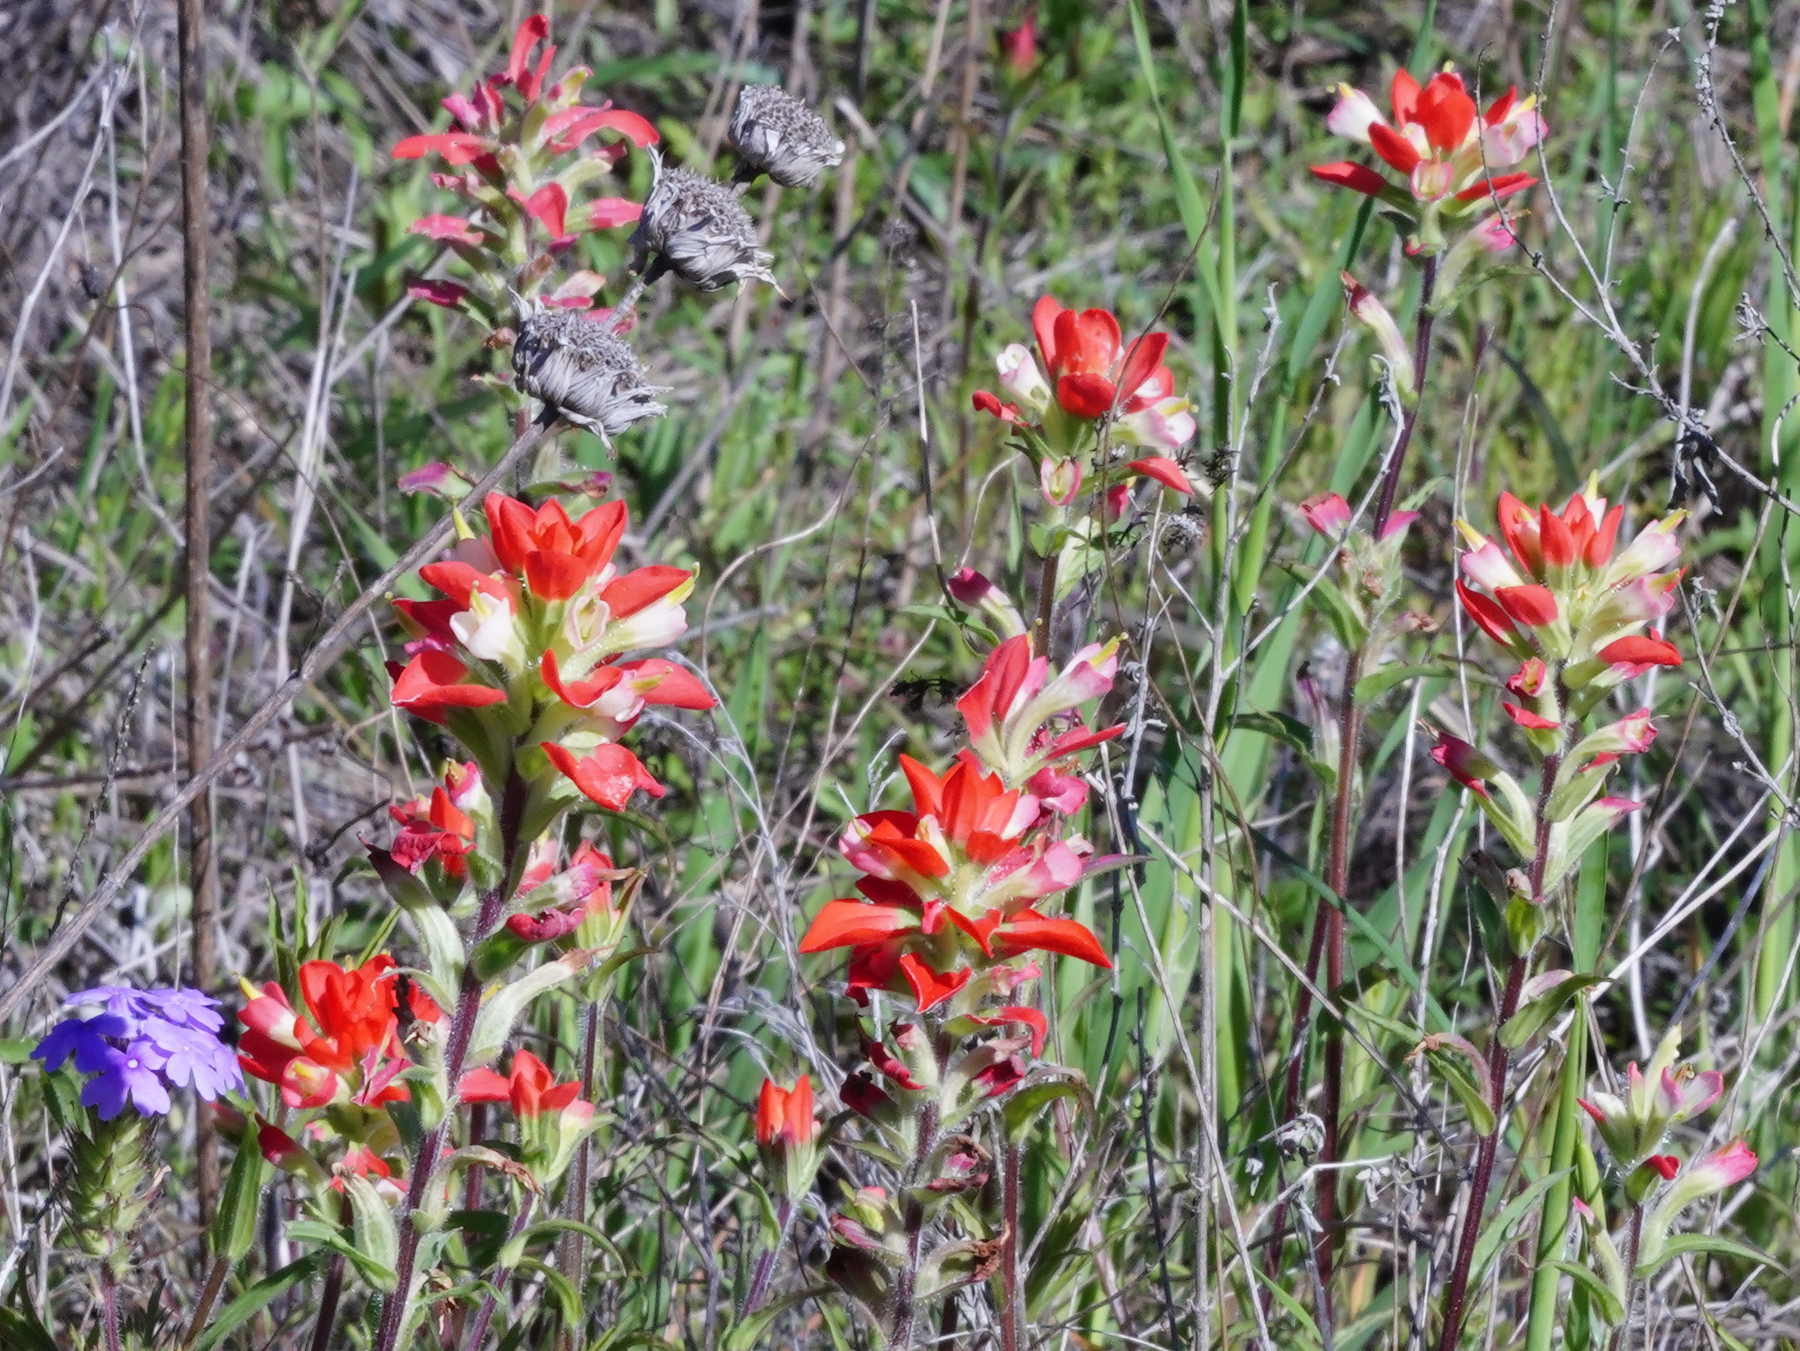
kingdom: Plantae
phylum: Tracheophyta
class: Magnoliopsida
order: Lamiales
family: Orobanchaceae
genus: Castilleja
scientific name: Castilleja indivisa
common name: Texas paintbrush
